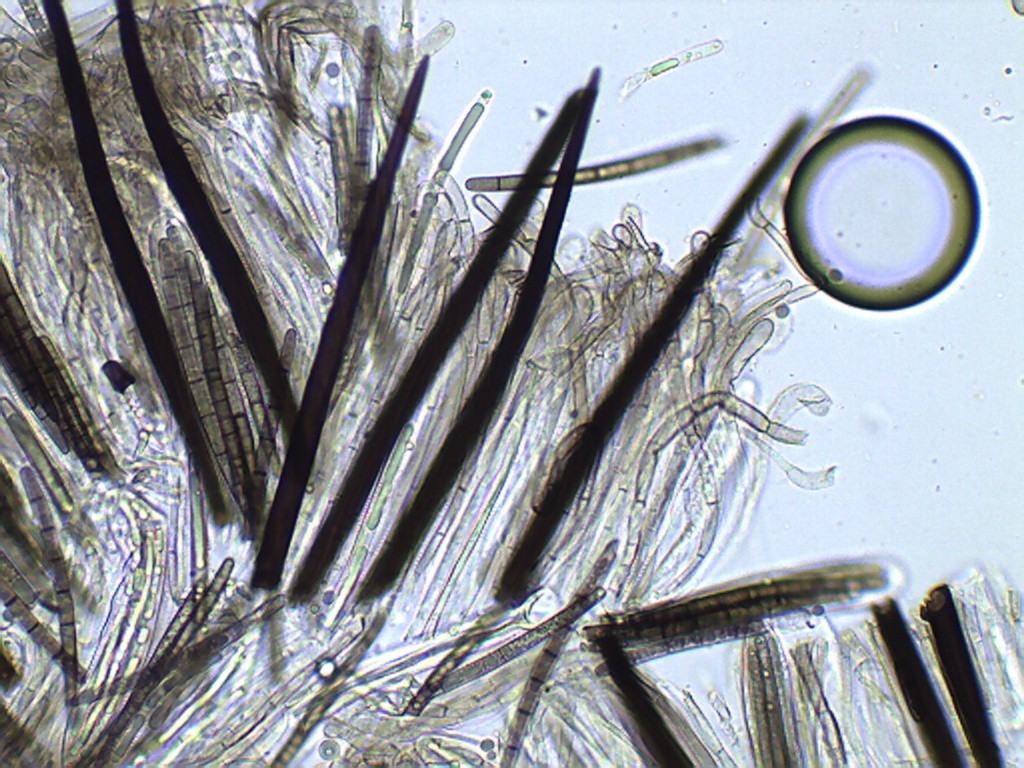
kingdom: Fungi
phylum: Ascomycota
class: Geoglossomycetes
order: Geoglossales
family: Geoglossaceae
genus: Trichoglossum
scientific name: Trichoglossum walteri
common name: Short-spored earthtongue
